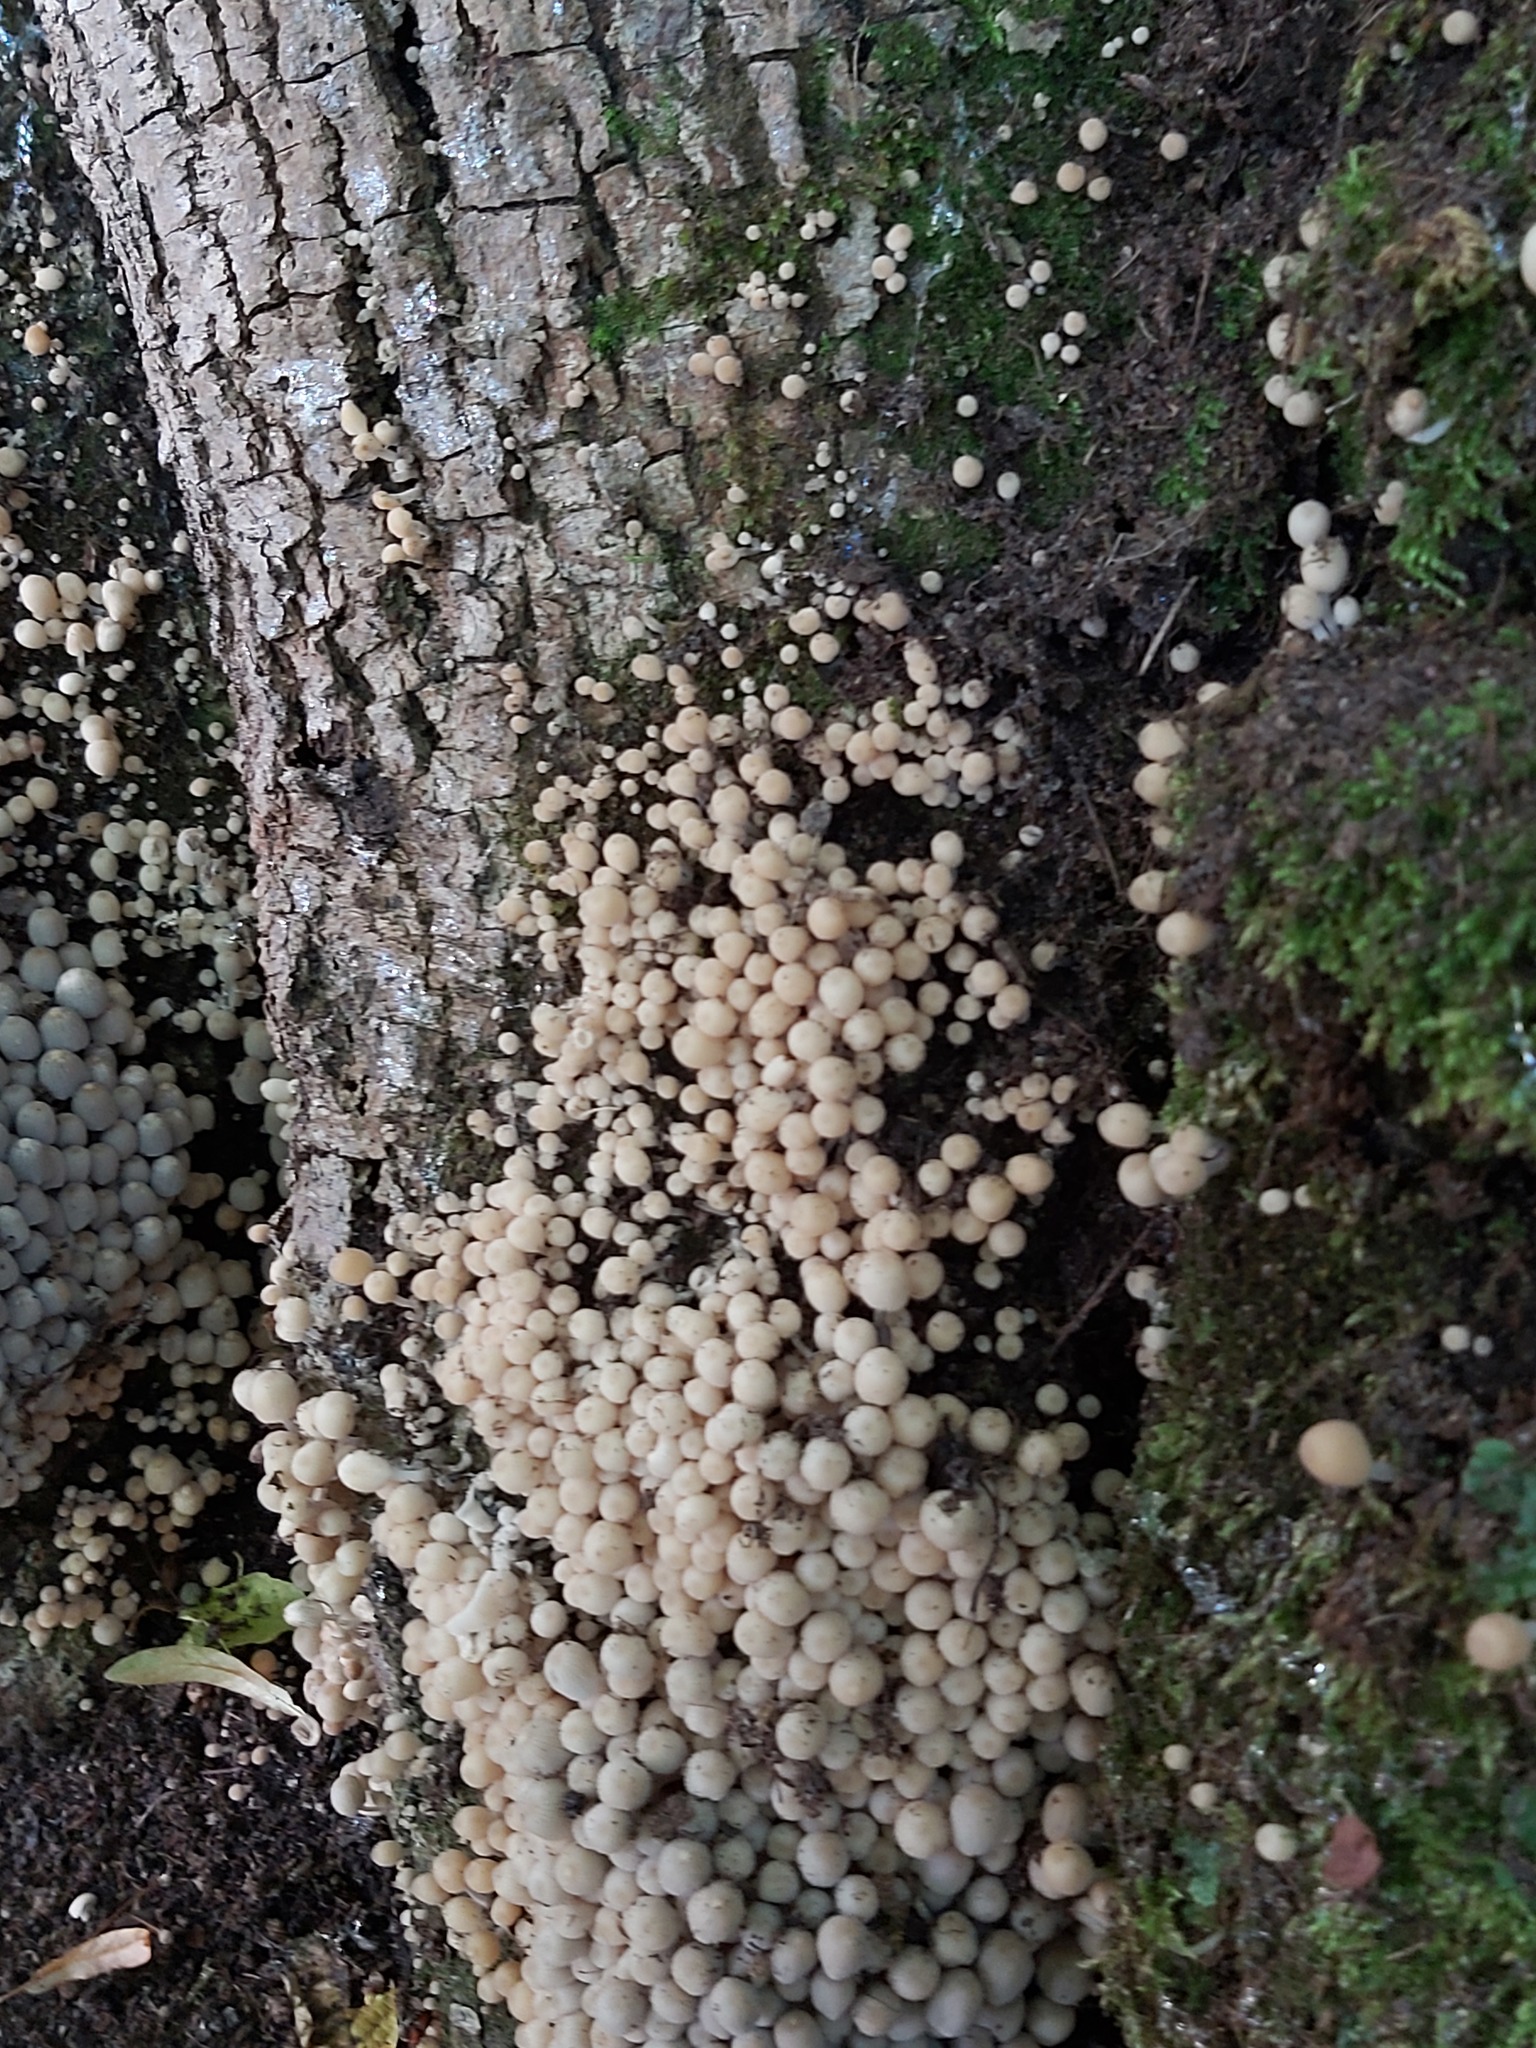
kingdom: Fungi
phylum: Basidiomycota
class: Agaricomycetes
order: Agaricales
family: Psathyrellaceae
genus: Coprinellus
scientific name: Coprinellus disseminatus
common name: Fairies' bonnets
